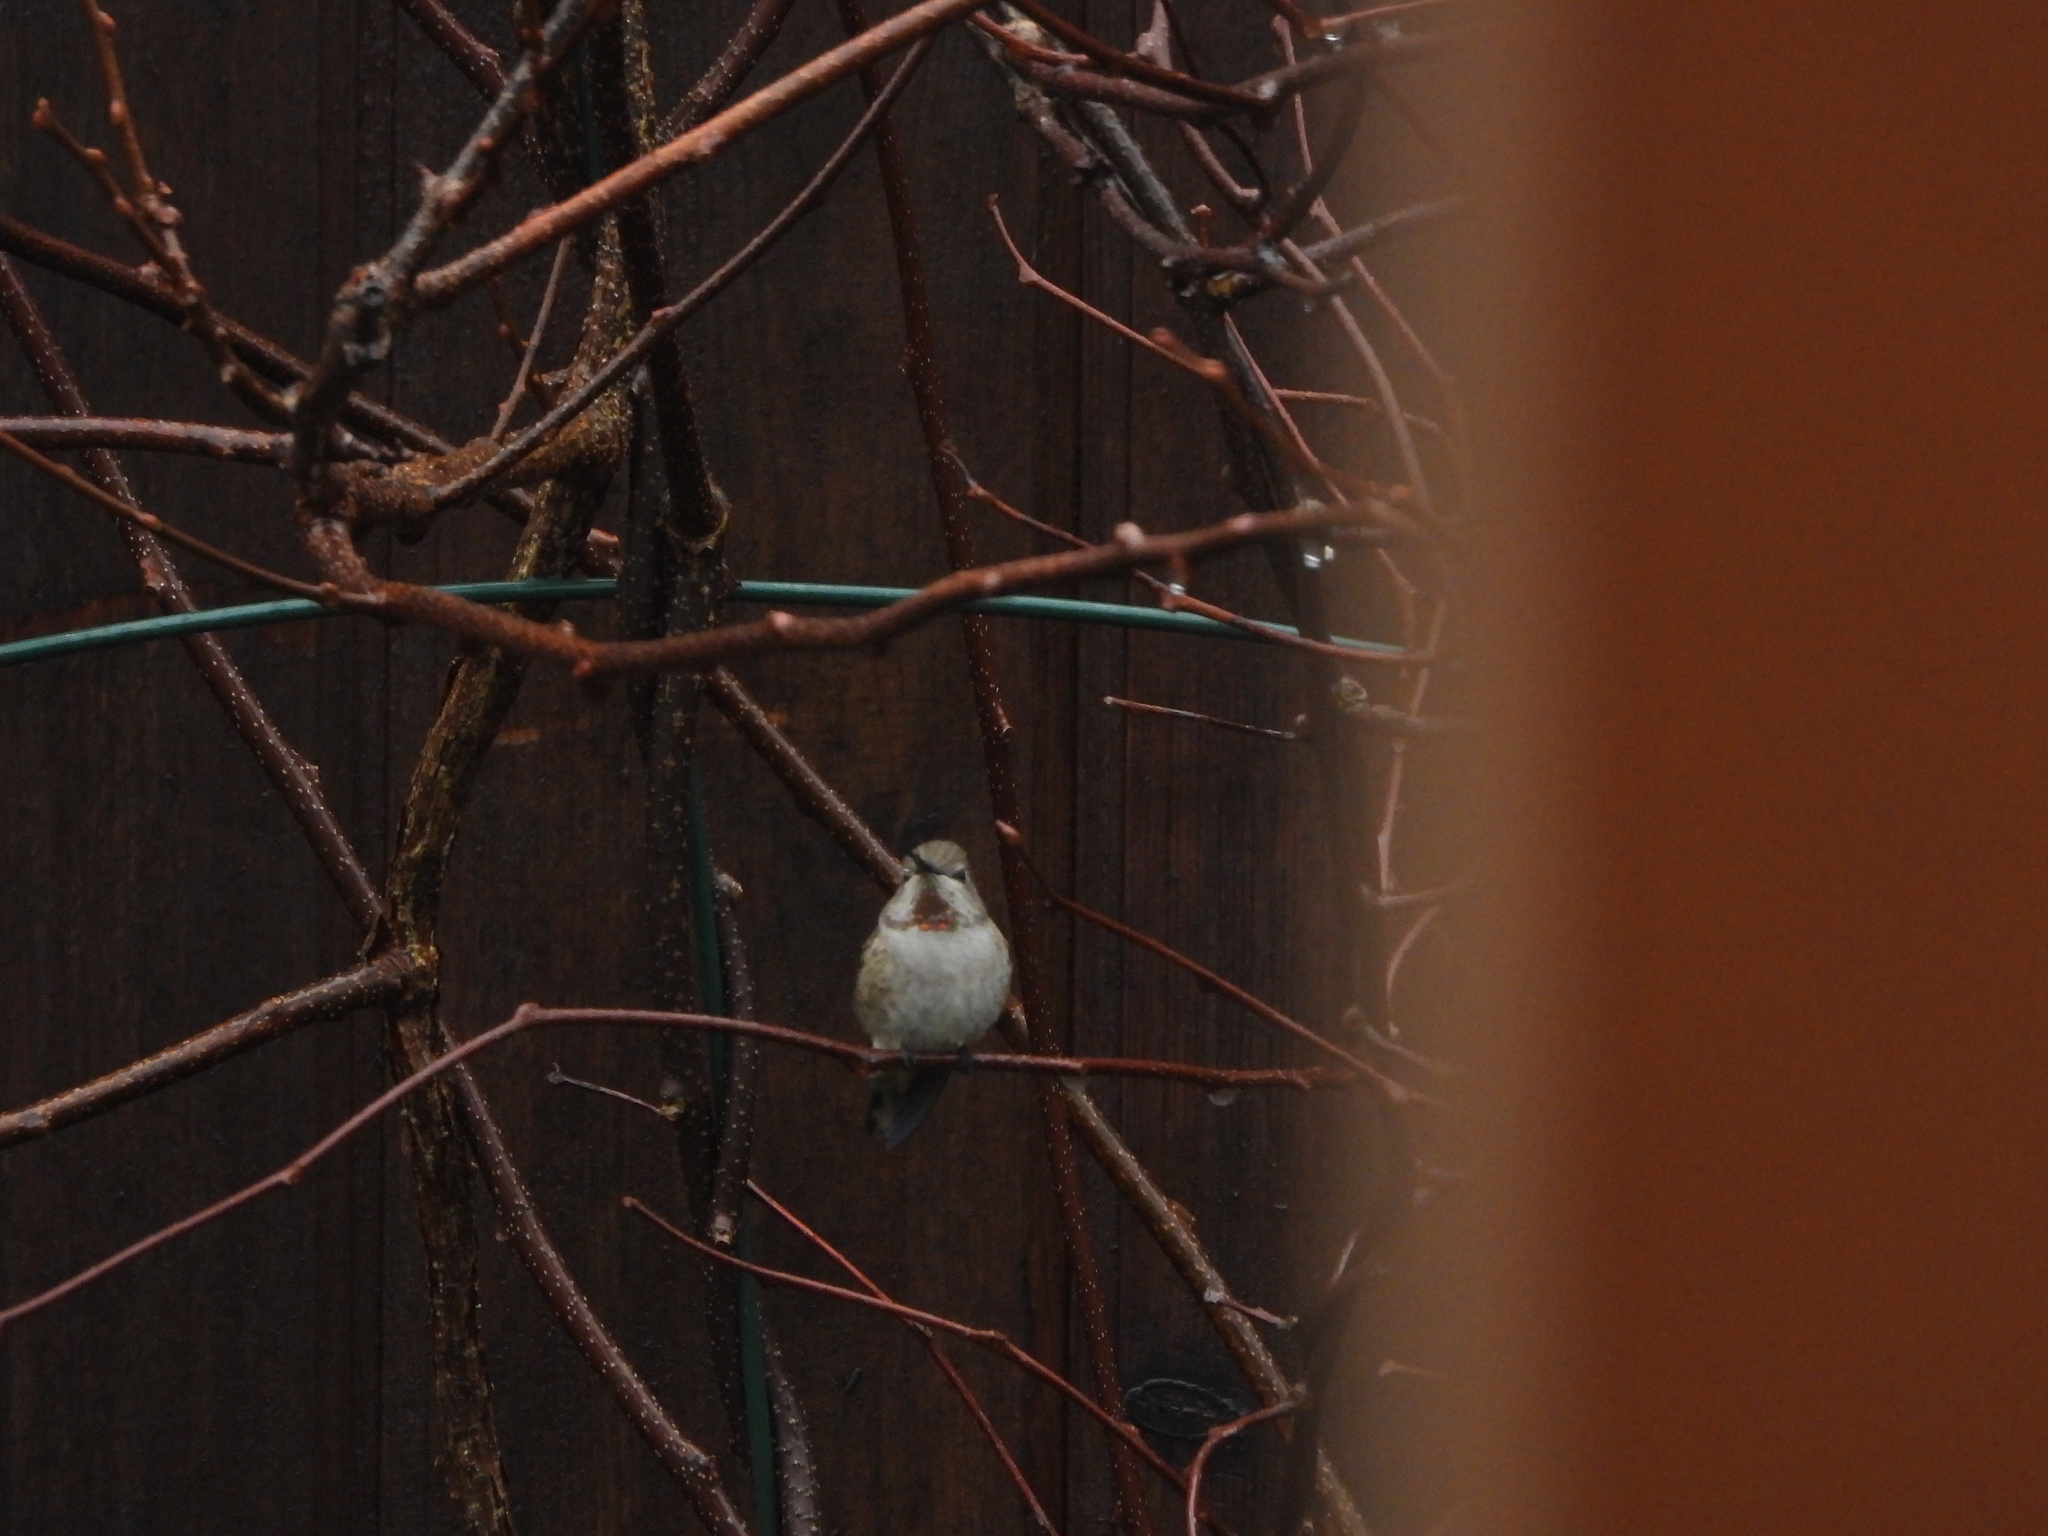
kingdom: Animalia
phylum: Chordata
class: Aves
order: Apodiformes
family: Trochilidae
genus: Calypte
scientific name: Calypte anna
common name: Anna's hummingbird
